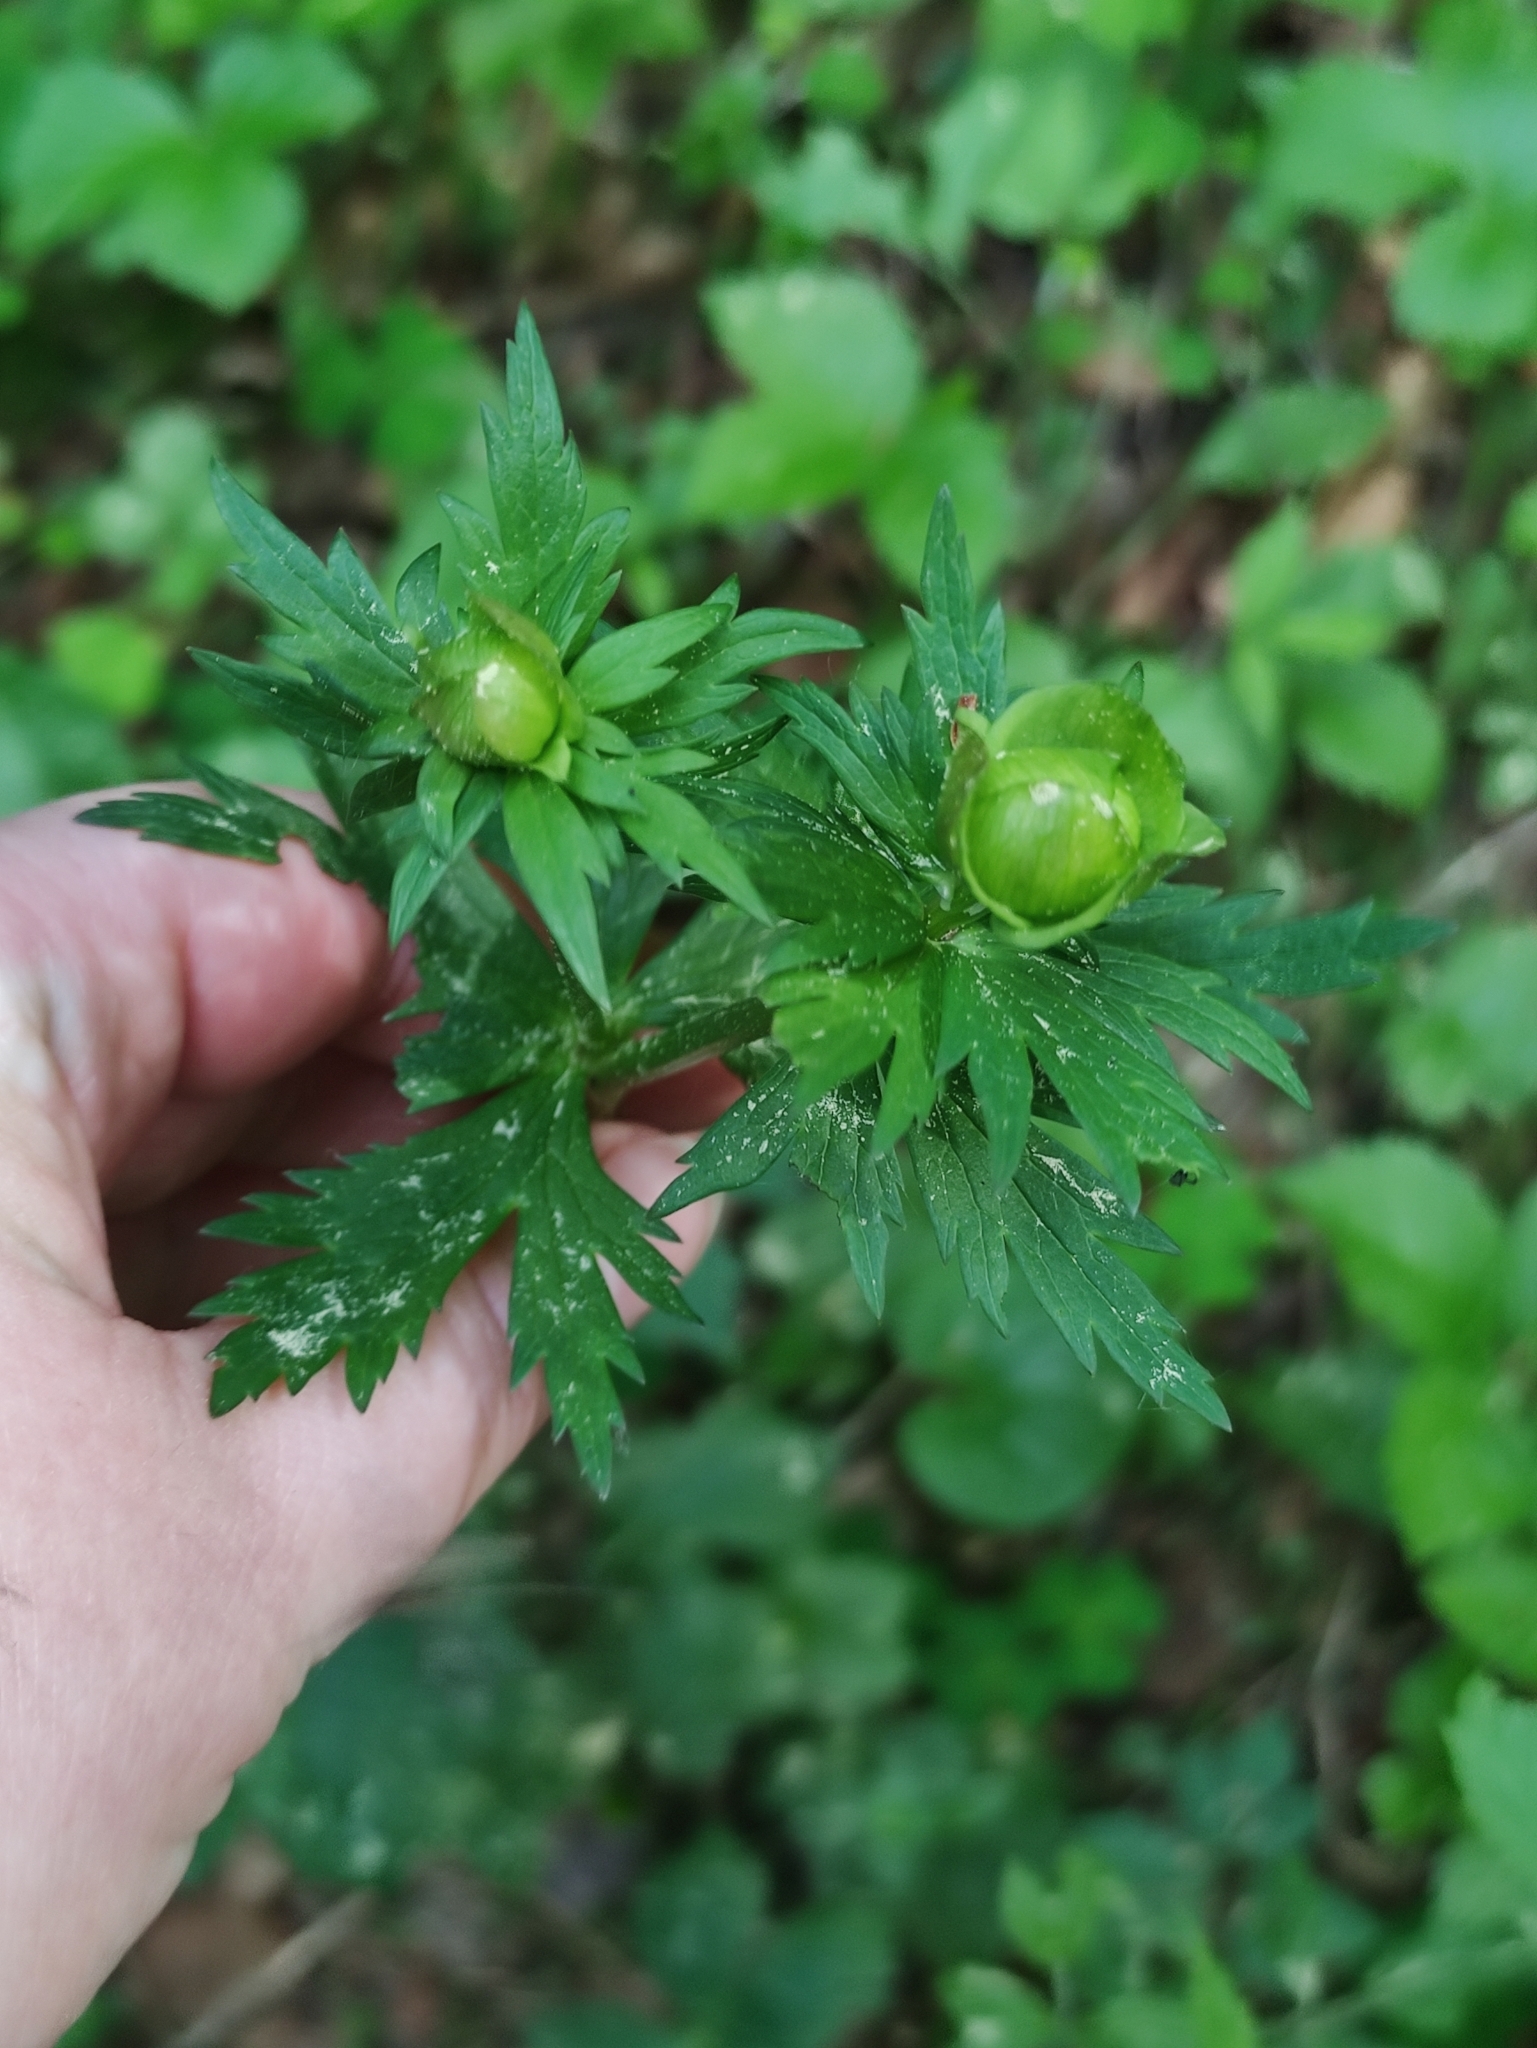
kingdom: Plantae
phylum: Tracheophyta
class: Magnoliopsida
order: Ranunculales
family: Ranunculaceae
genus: Trollius
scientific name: Trollius europaeus
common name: European globeflower
